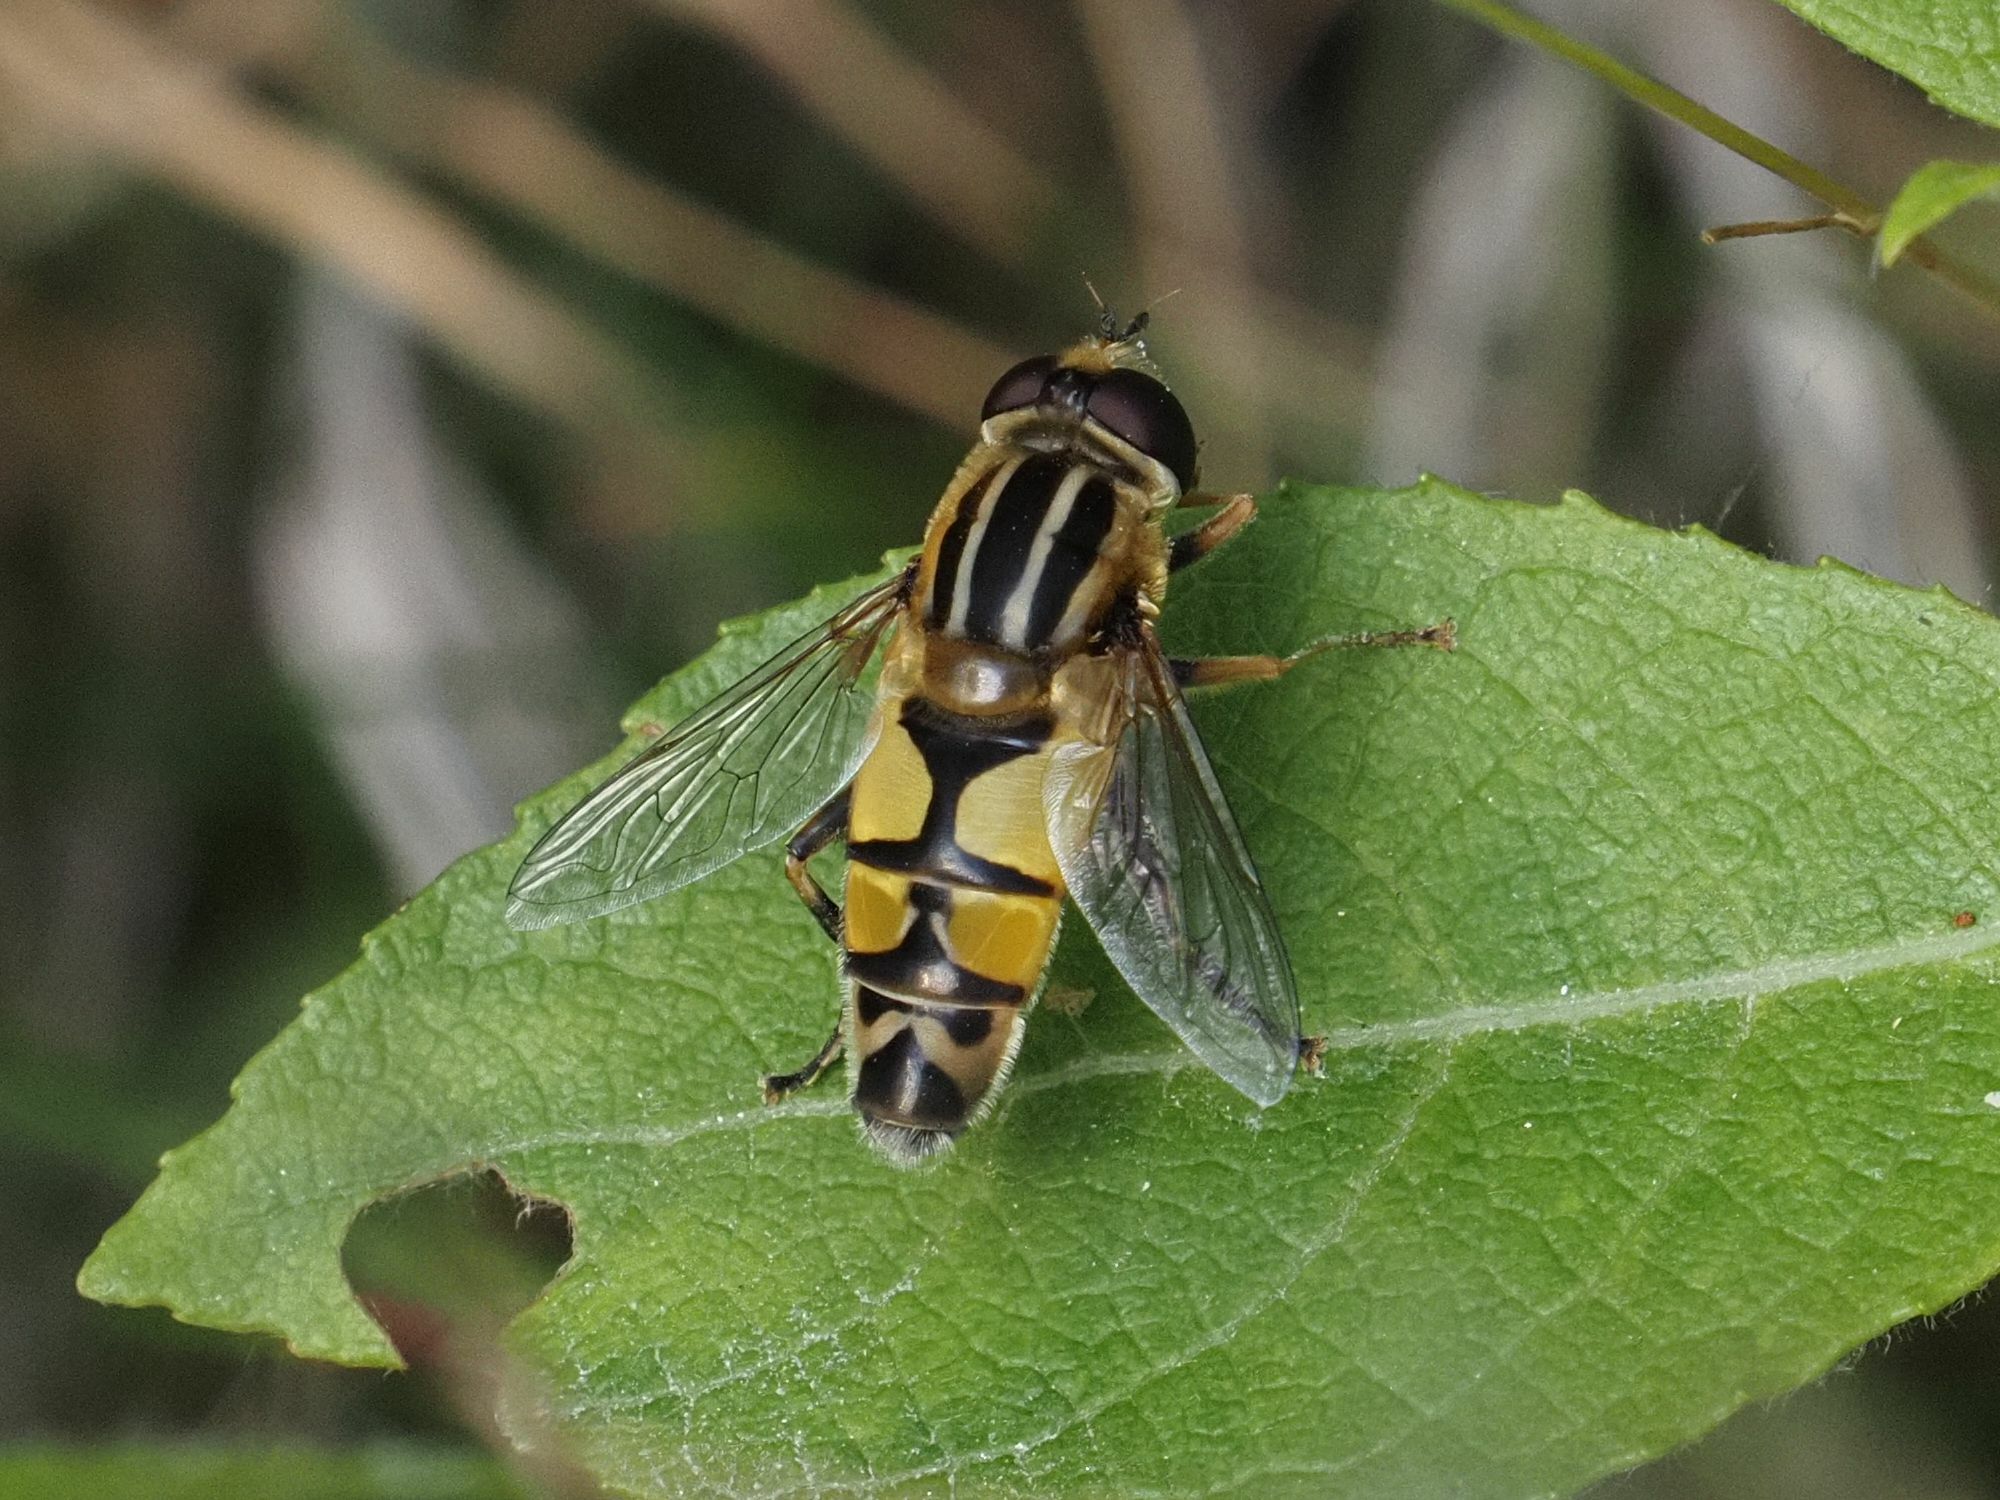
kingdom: Animalia
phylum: Arthropoda
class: Insecta
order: Diptera
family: Syrphidae
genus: Helophilus
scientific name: Helophilus trivittatus
